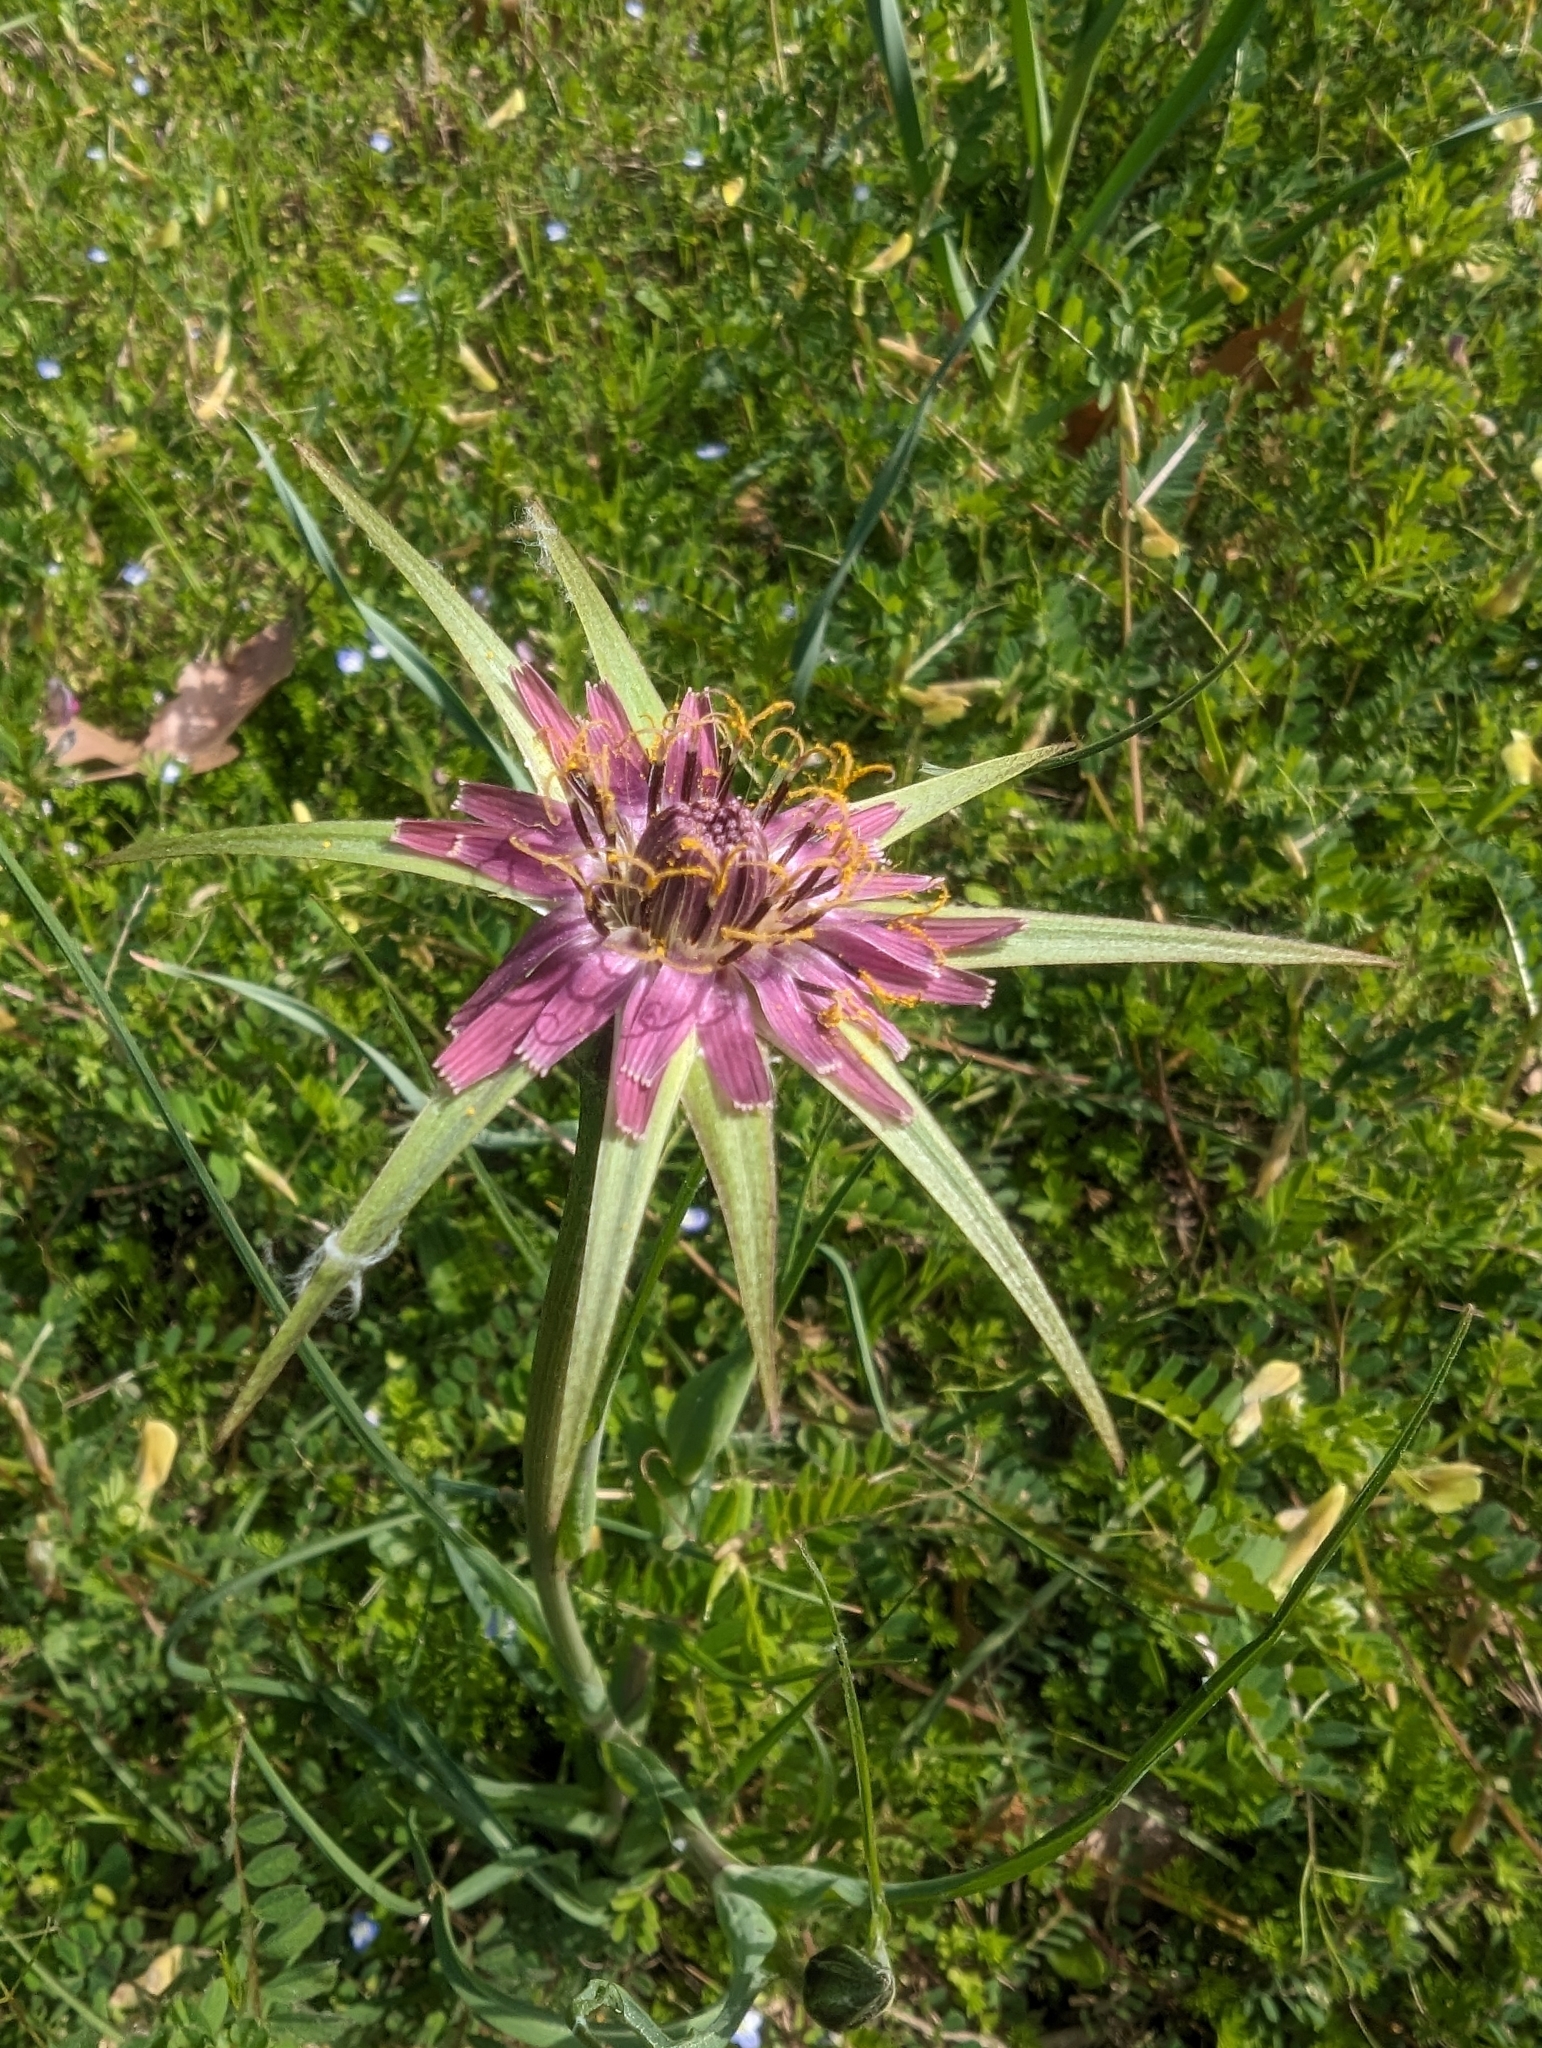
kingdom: Plantae
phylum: Tracheophyta
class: Magnoliopsida
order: Asterales
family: Asteraceae
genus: Tragopogon
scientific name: Tragopogon porrifolius
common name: Salsify
